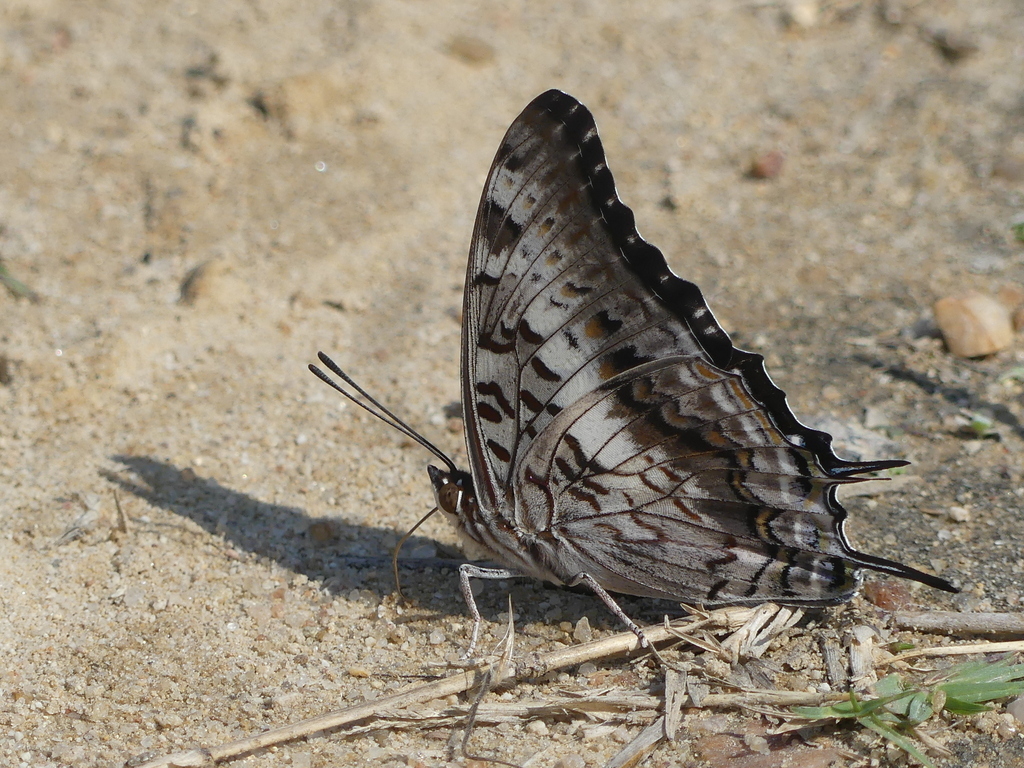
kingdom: Animalia
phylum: Arthropoda
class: Insecta
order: Lepidoptera
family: Nymphalidae
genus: Charaxes
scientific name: Charaxes achaemenes
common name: Bushveld charaxes
